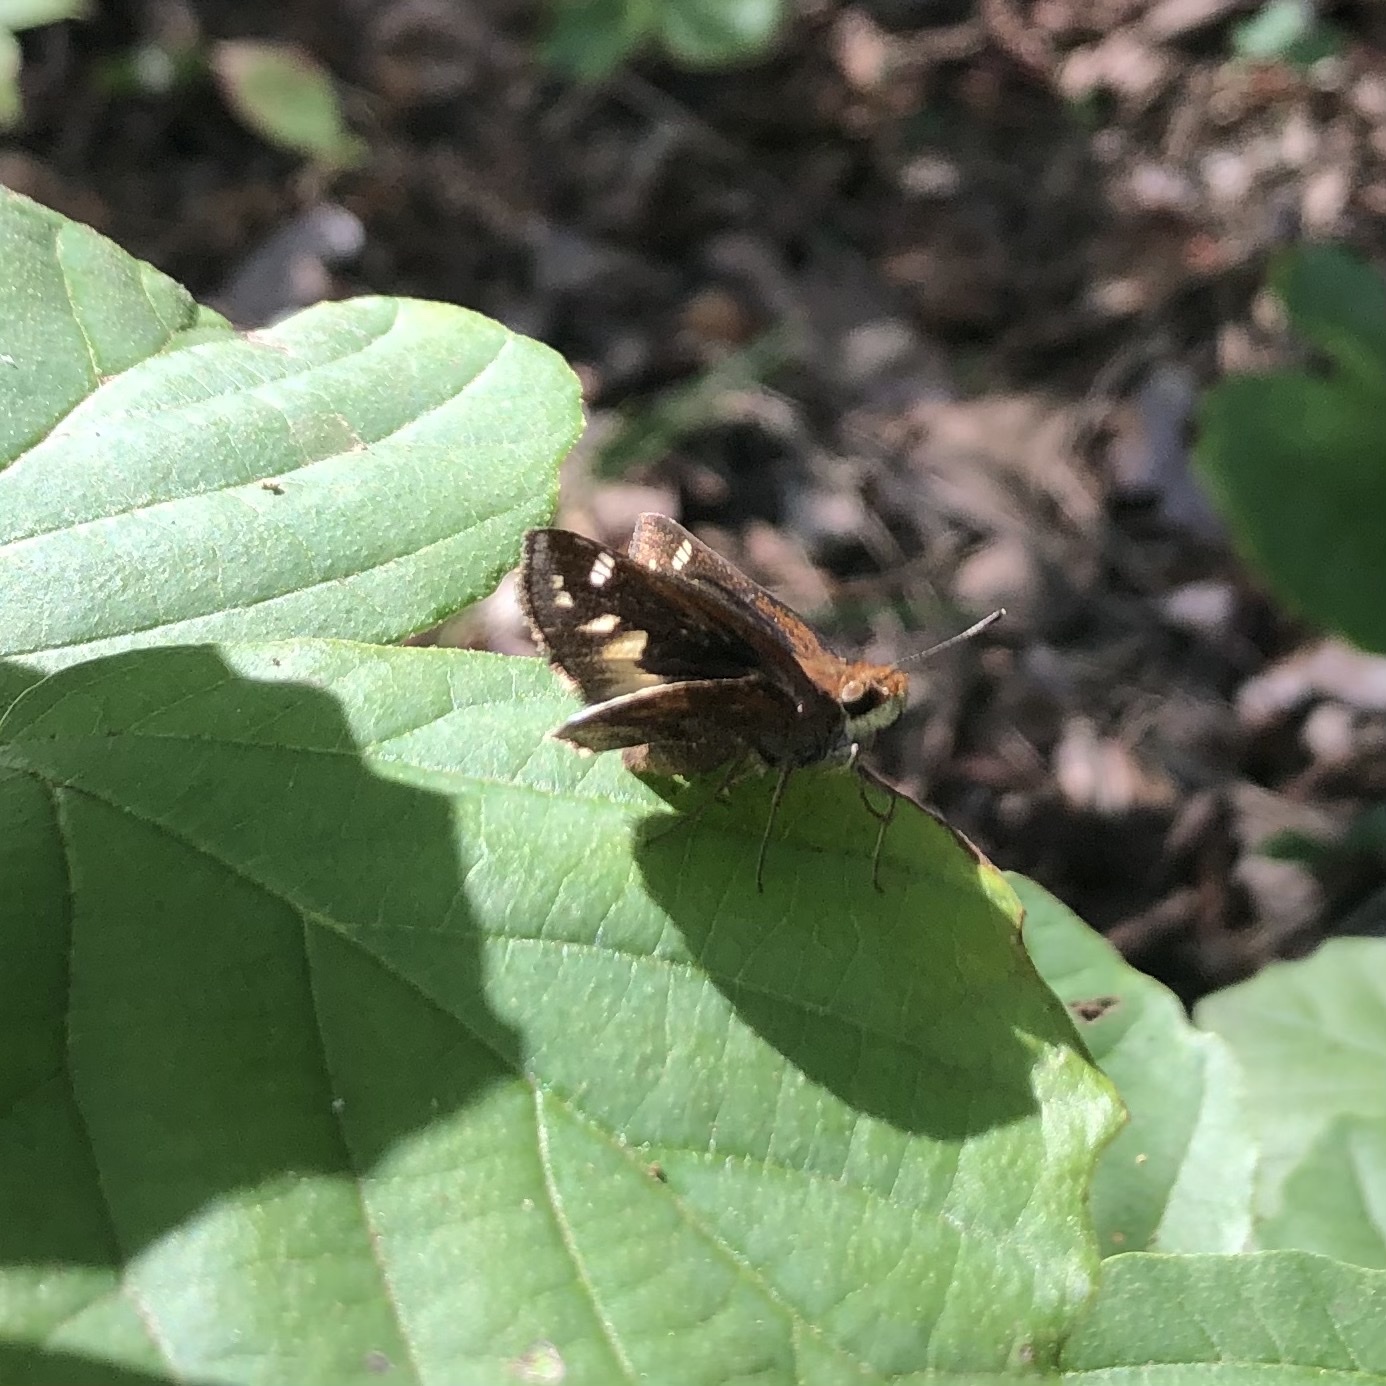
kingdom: Animalia
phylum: Arthropoda
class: Insecta
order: Lepidoptera
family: Hesperiidae
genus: Lon
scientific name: Lon zabulon
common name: Zabulon skipper
